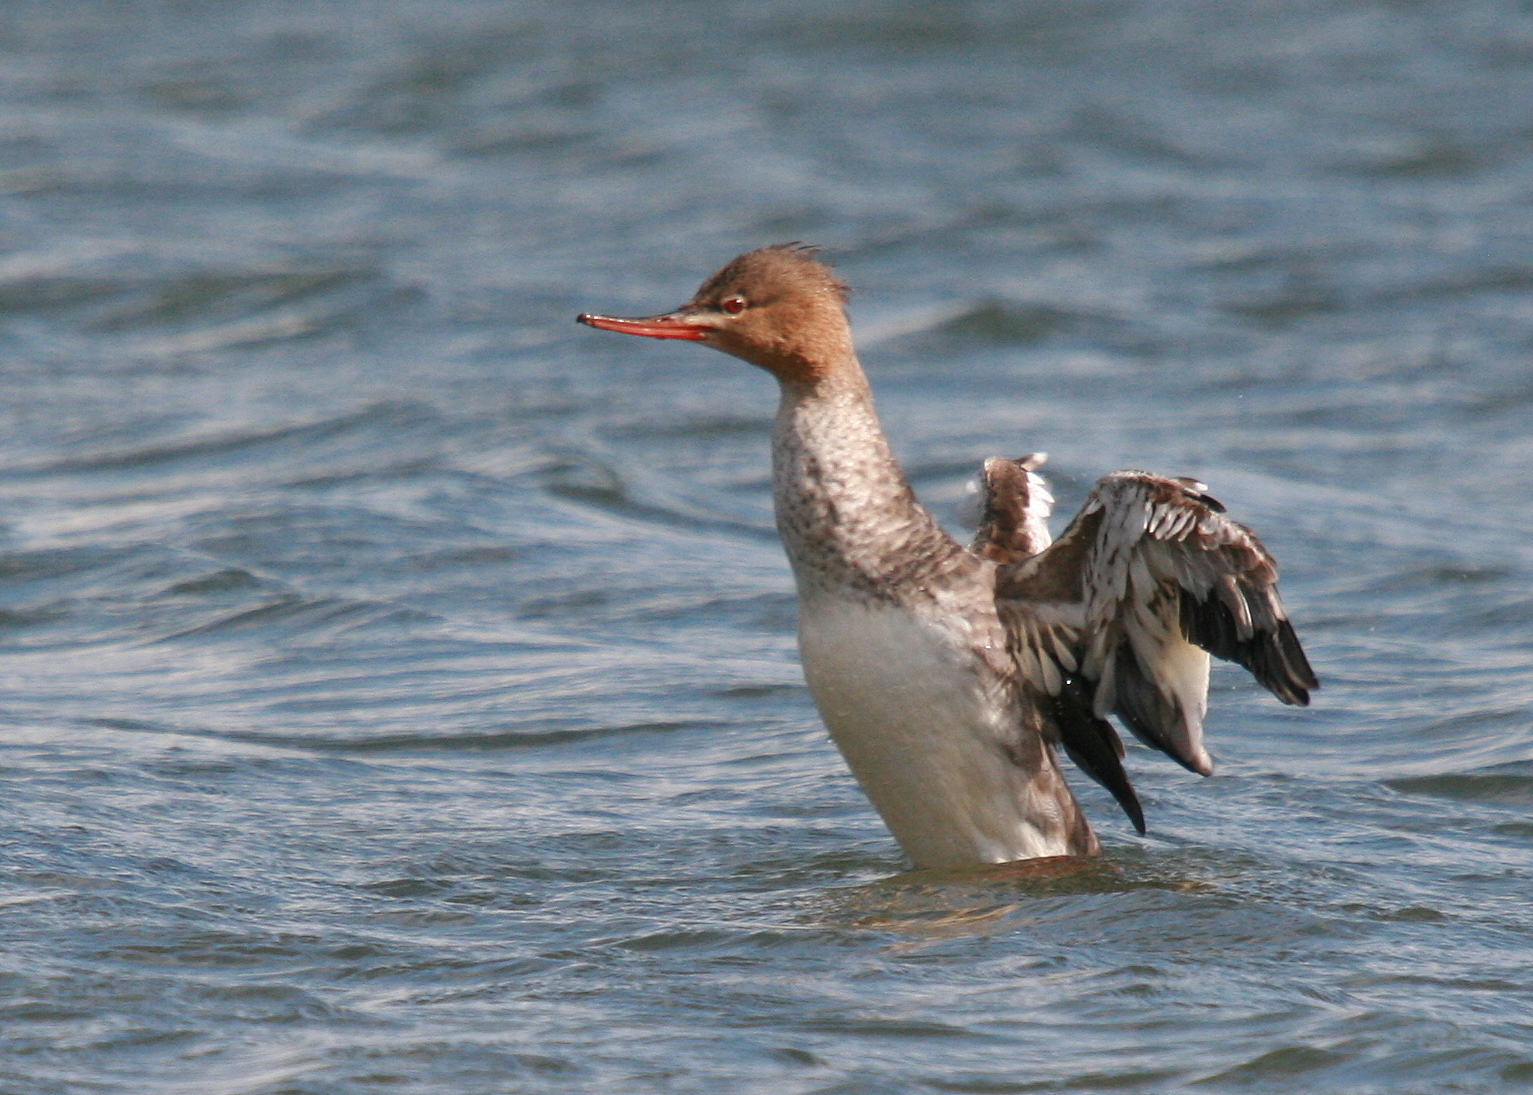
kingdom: Animalia
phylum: Chordata
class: Aves
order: Anseriformes
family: Anatidae
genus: Mergus
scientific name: Mergus serrator
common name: Red-breasted merganser
